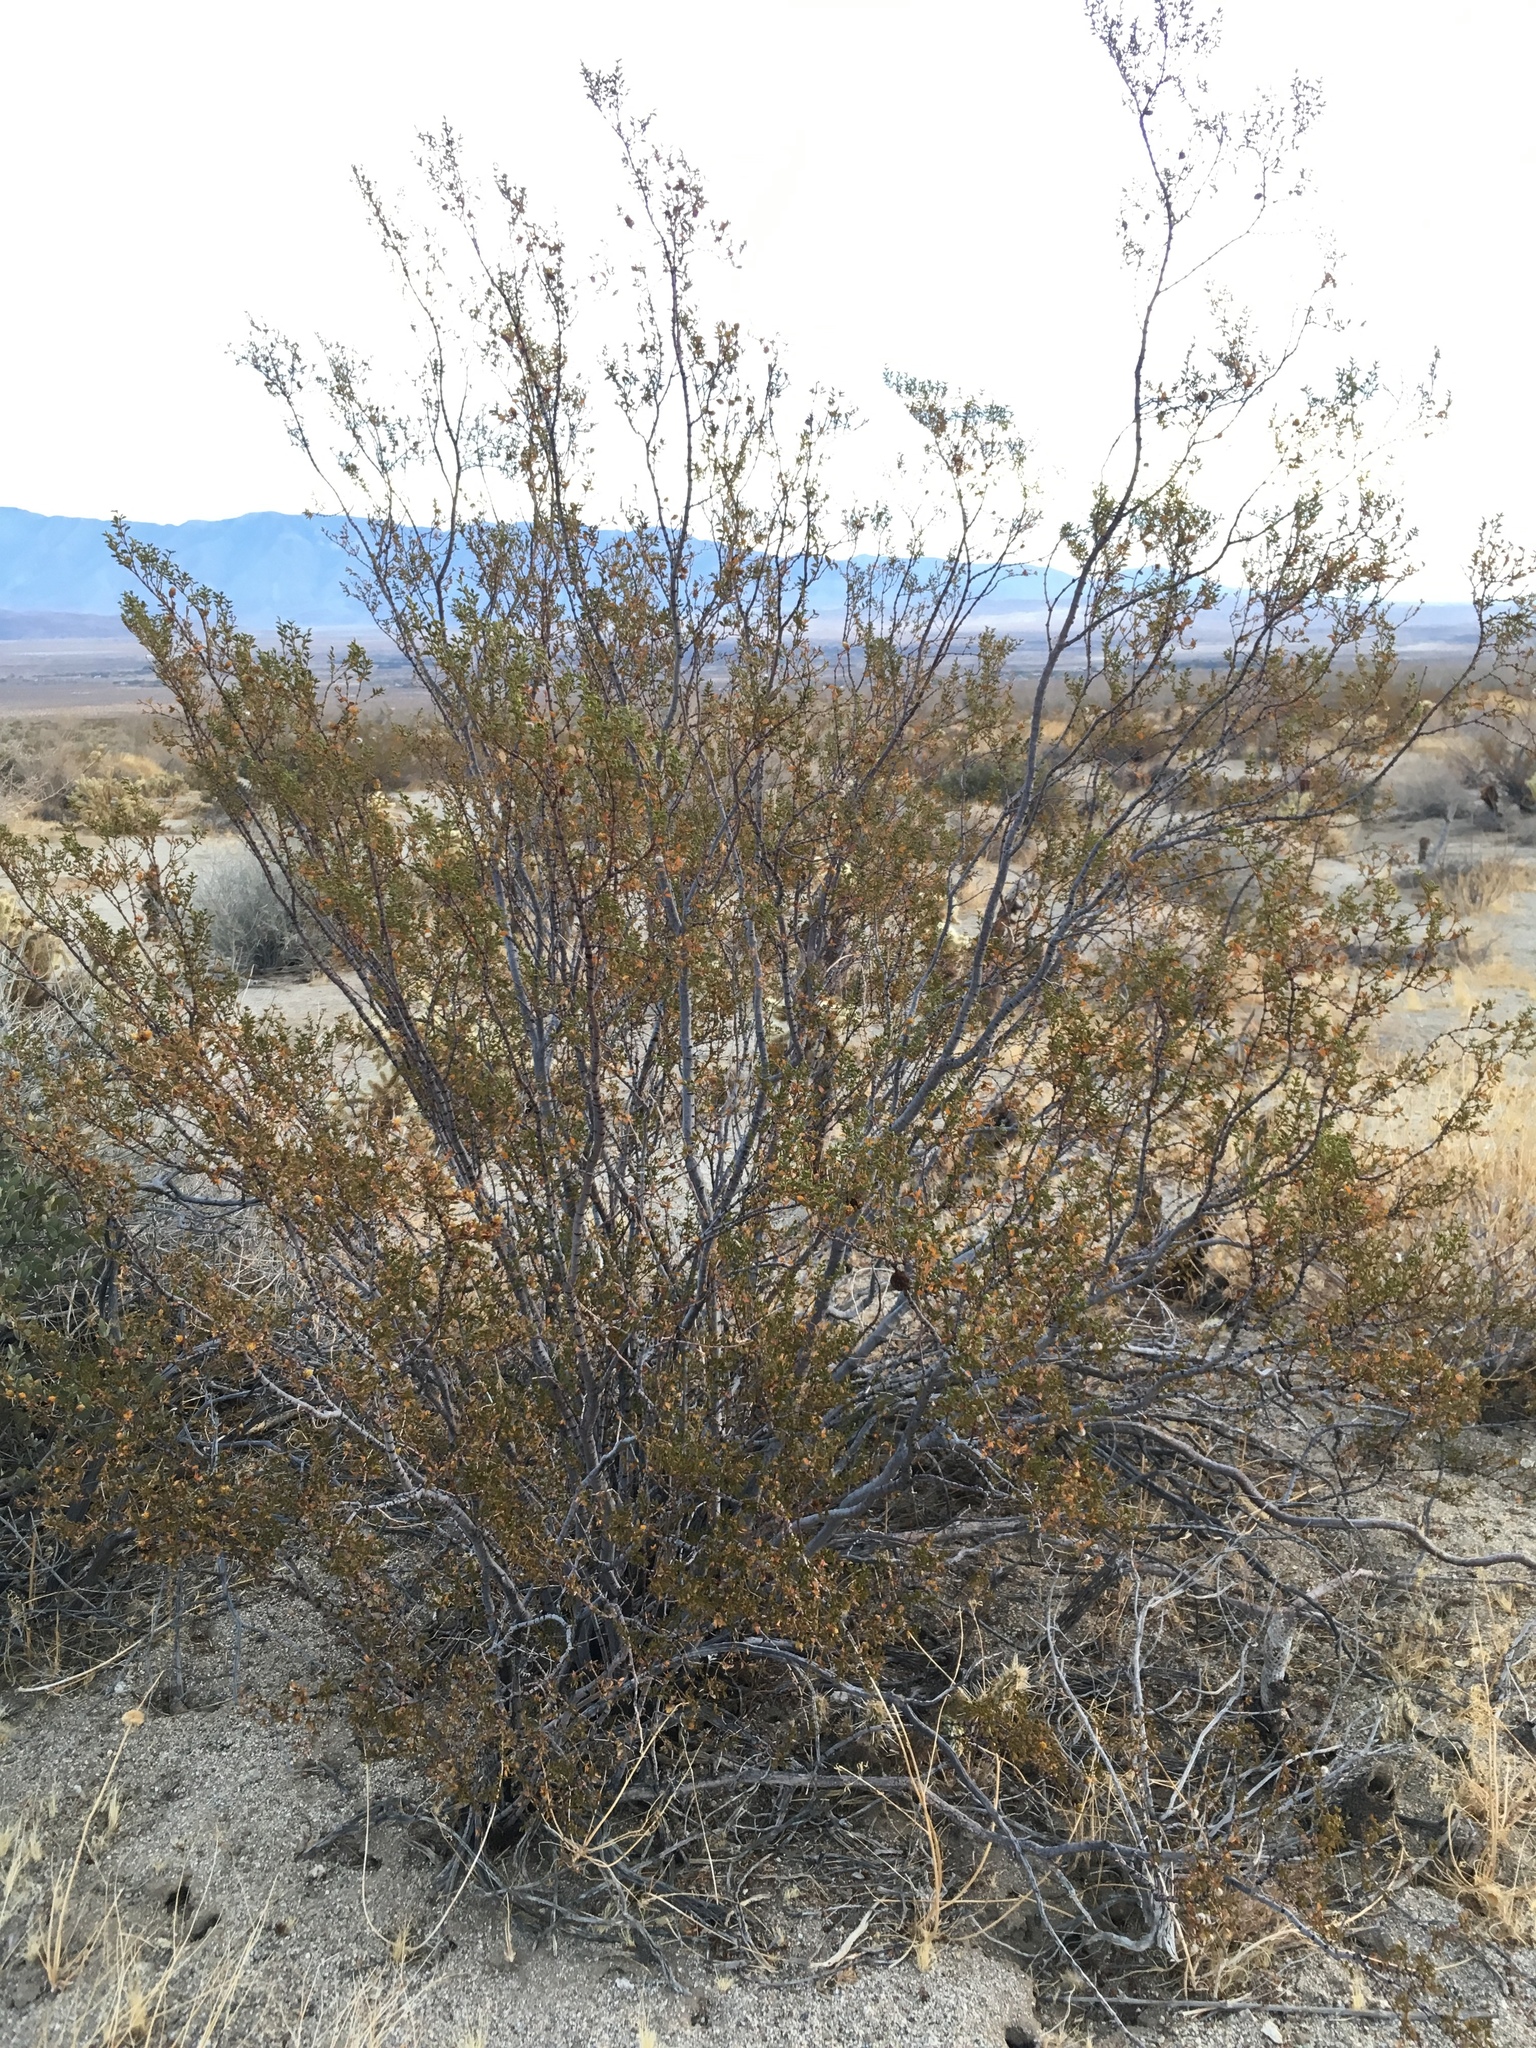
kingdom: Plantae
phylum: Tracheophyta
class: Magnoliopsida
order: Zygophyllales
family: Zygophyllaceae
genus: Larrea
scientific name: Larrea tridentata
